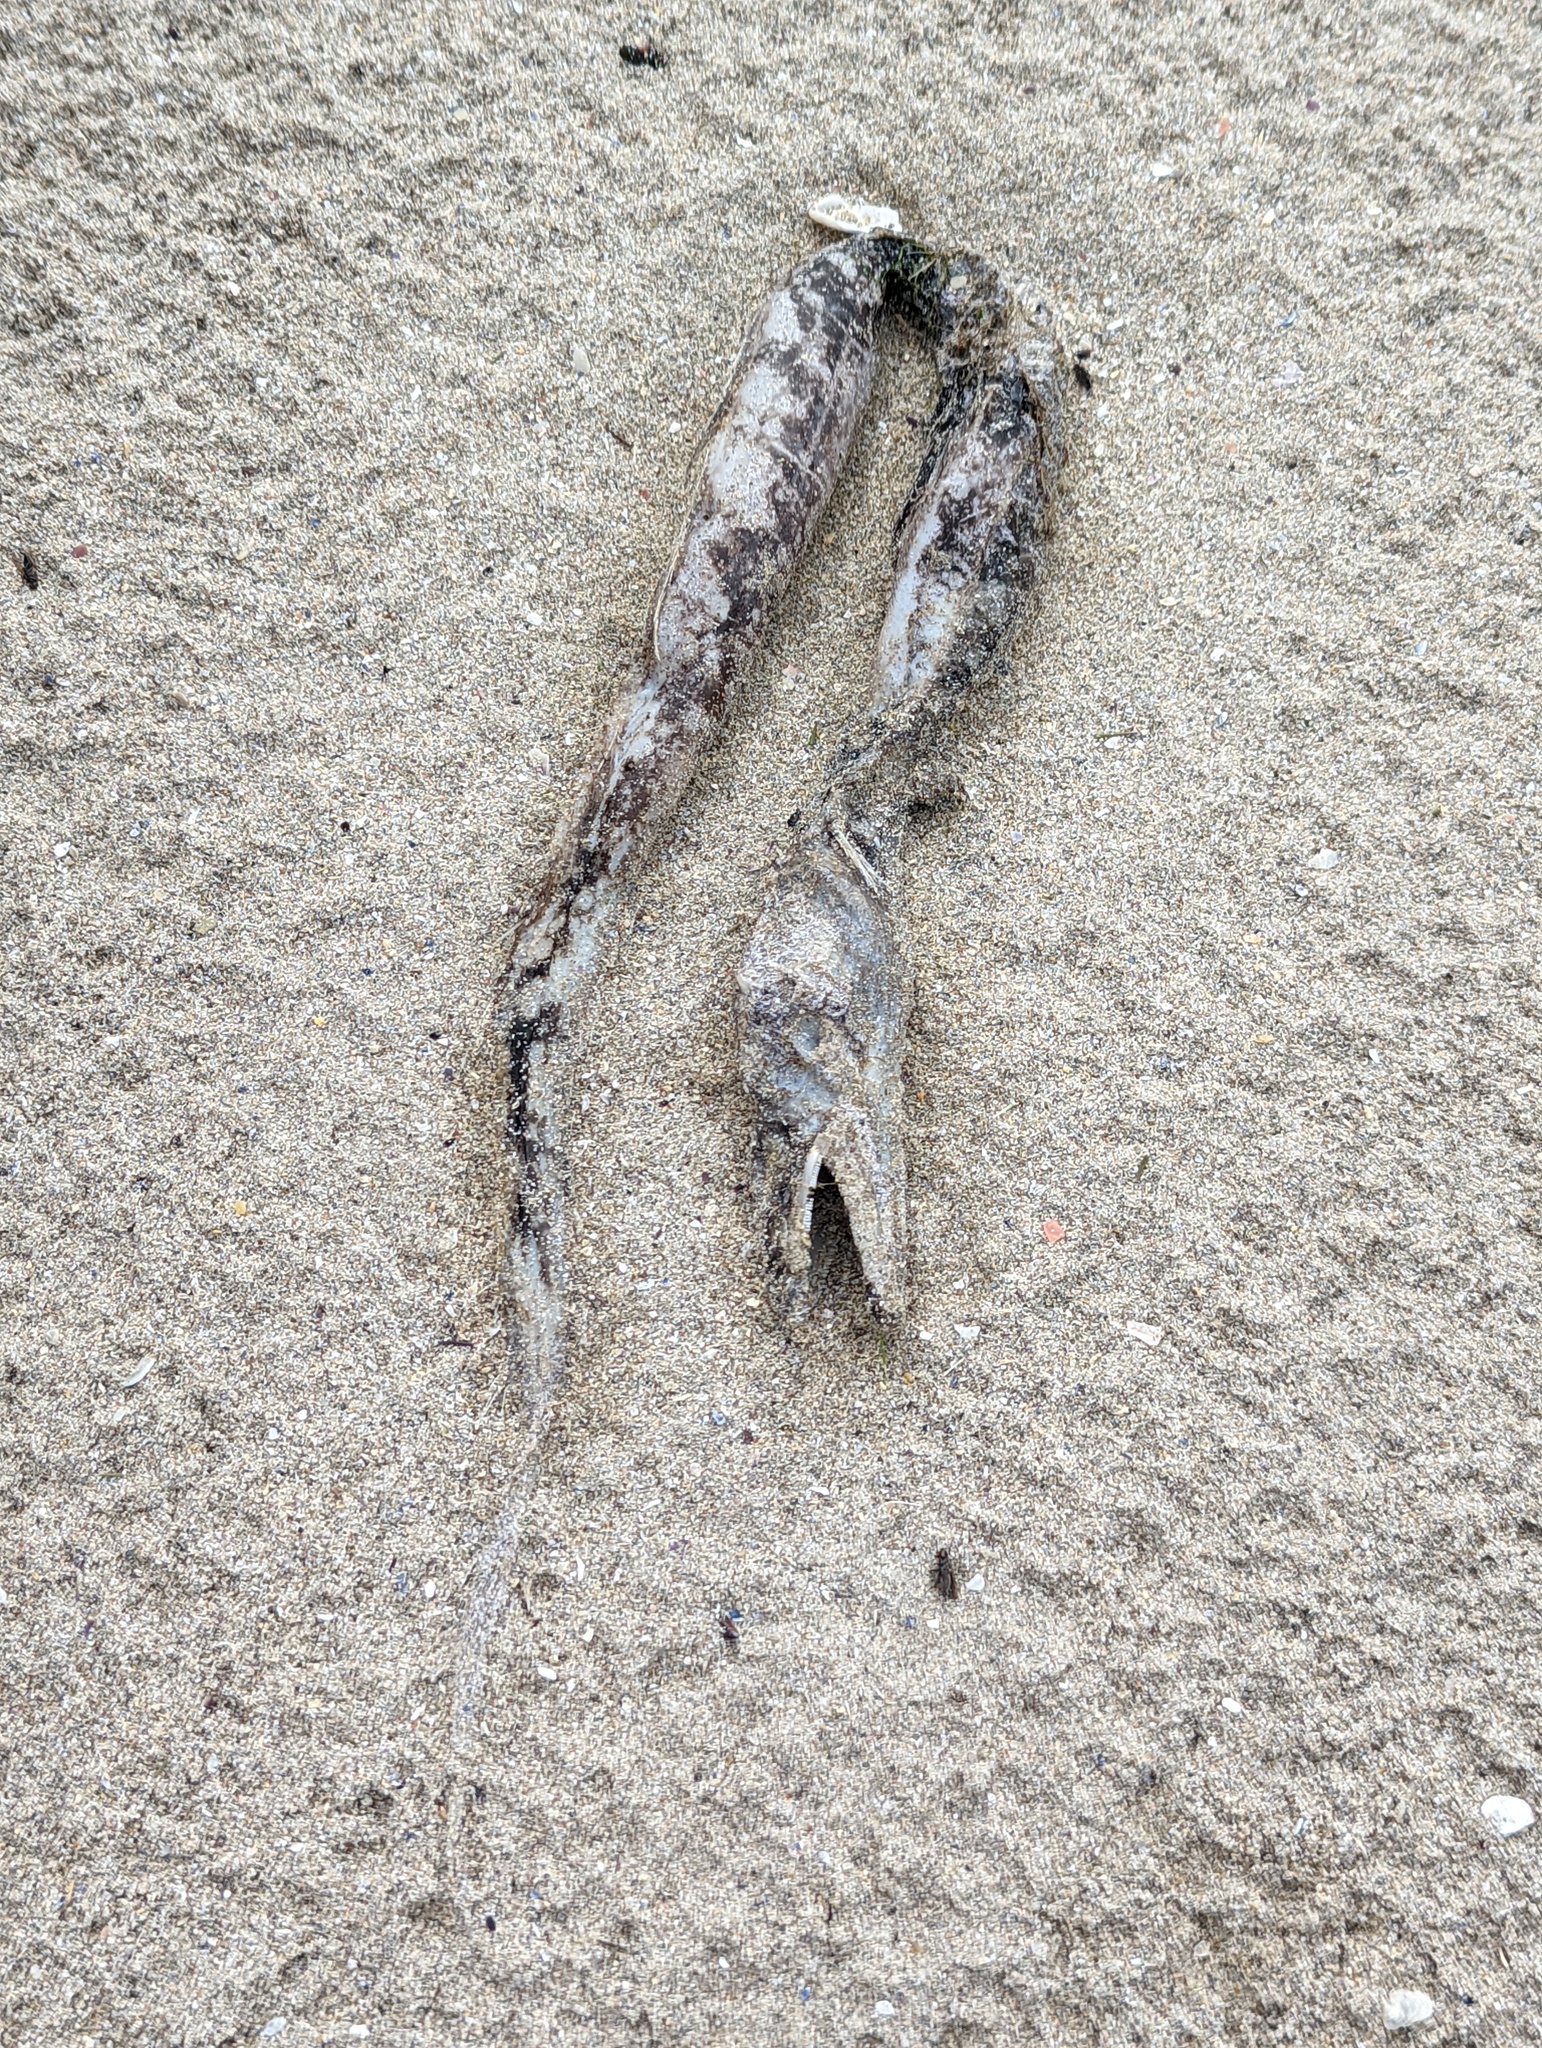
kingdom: Animalia
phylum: Chordata
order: Anguilliformes
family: Congridae
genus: Conger
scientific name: Conger conger
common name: Conger eel
